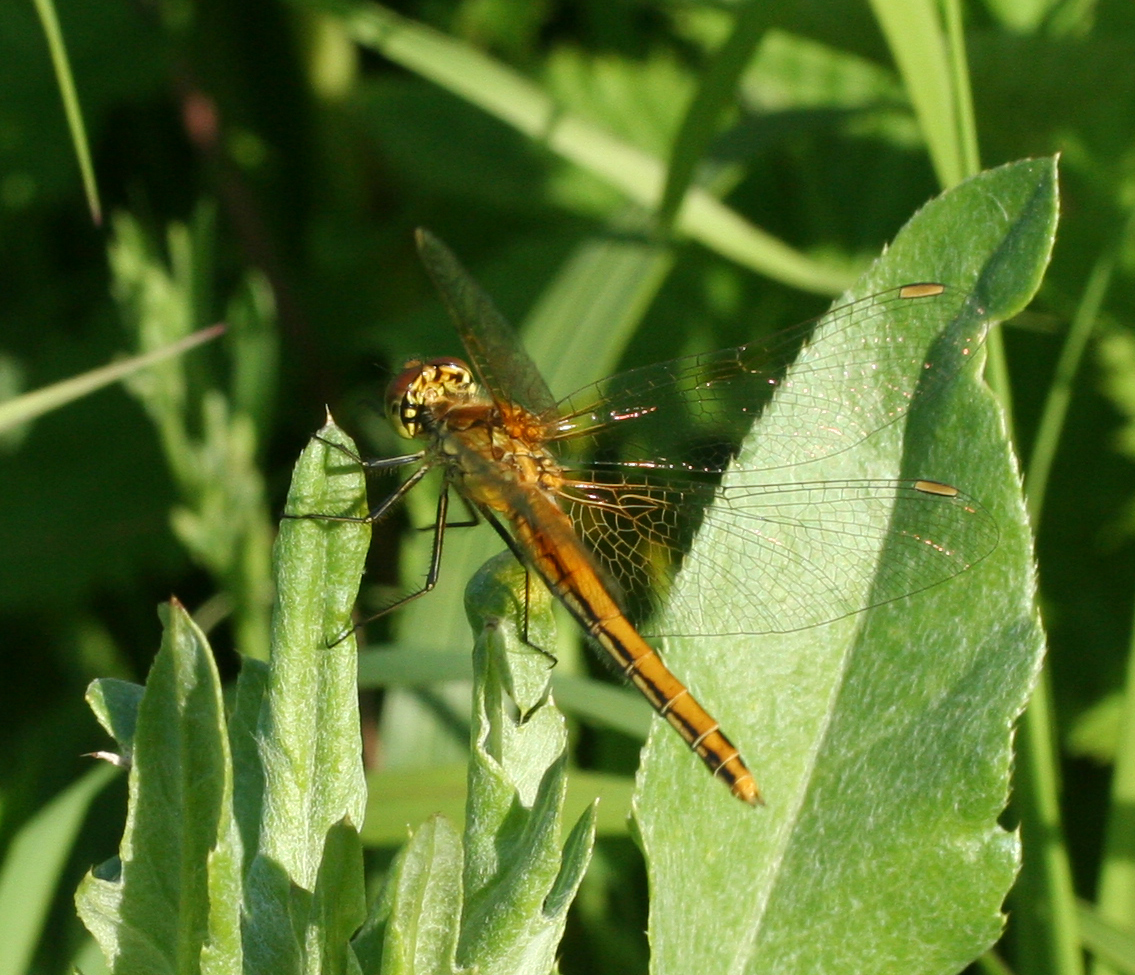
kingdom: Animalia
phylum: Arthropoda
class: Insecta
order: Odonata
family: Libellulidae
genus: Sympetrum
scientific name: Sympetrum flaveolum
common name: Yellow-winged darter
